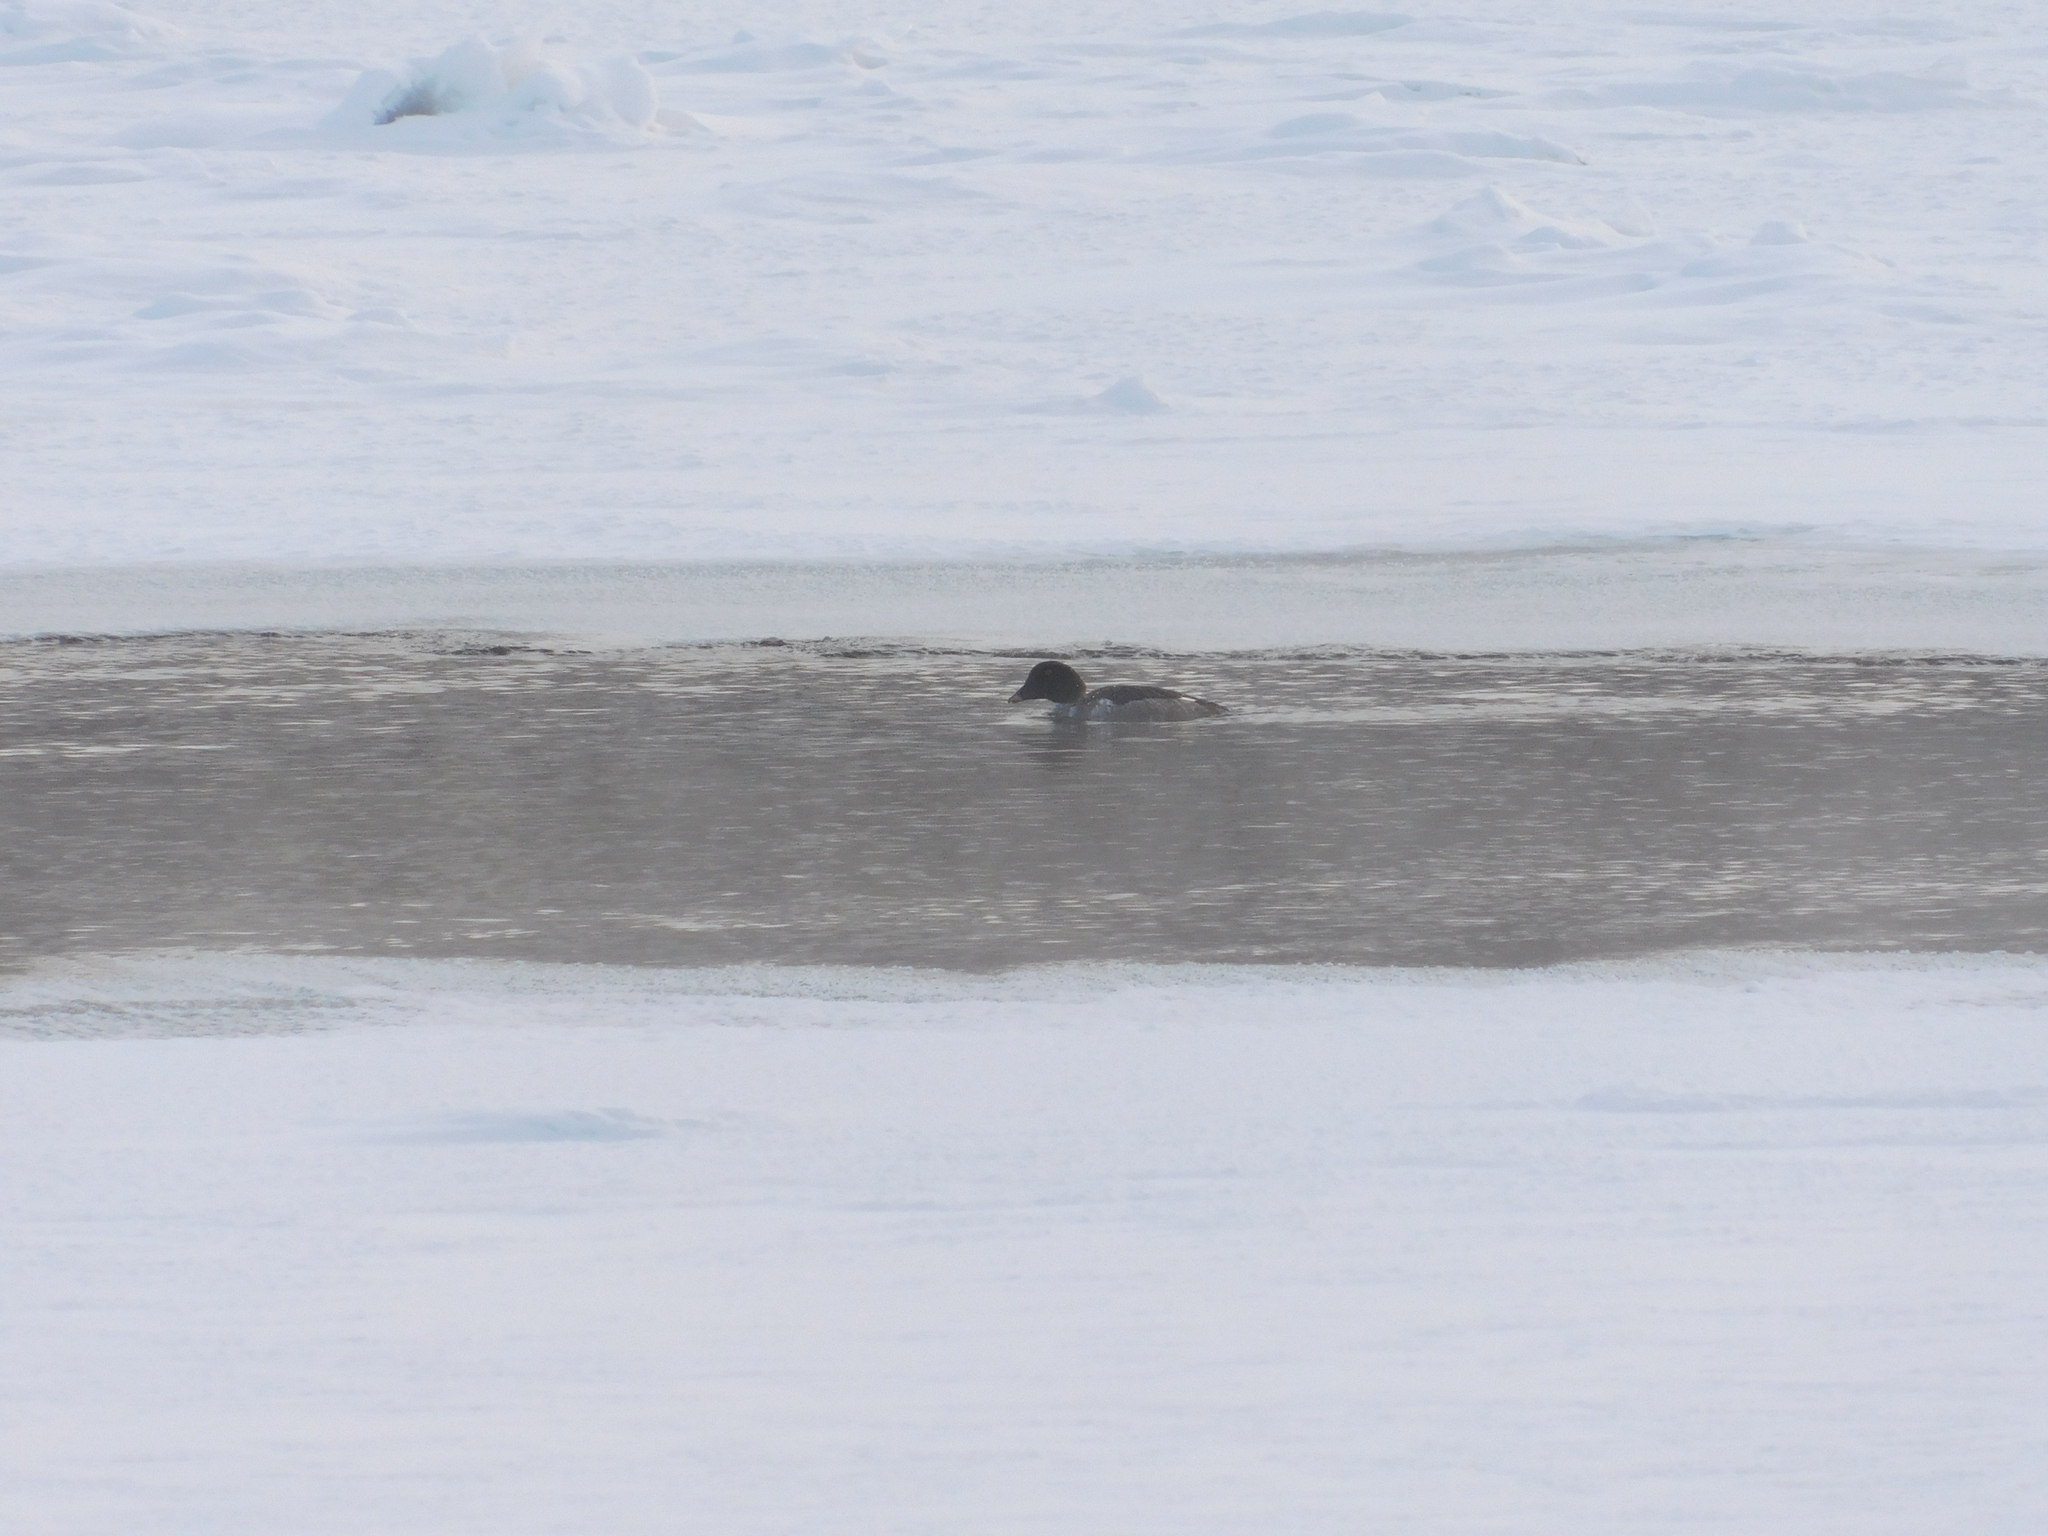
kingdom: Animalia
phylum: Chordata
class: Aves
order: Anseriformes
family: Anatidae
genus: Bucephala
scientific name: Bucephala clangula
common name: Common goldeneye
